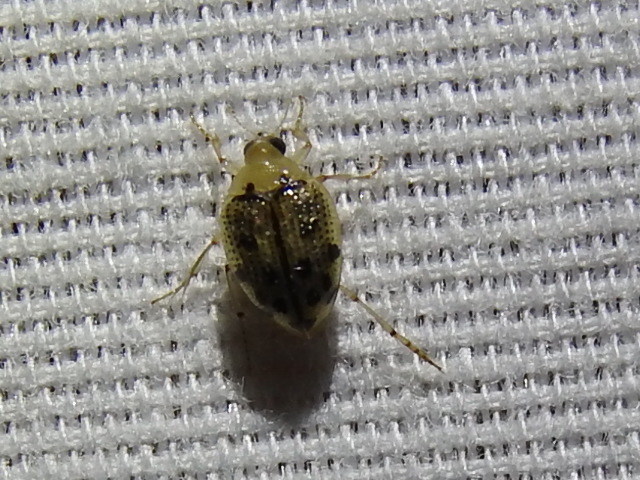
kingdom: Animalia
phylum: Arthropoda
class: Insecta
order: Coleoptera
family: Haliplidae
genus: Peltodytes
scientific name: Peltodytes litoralis
